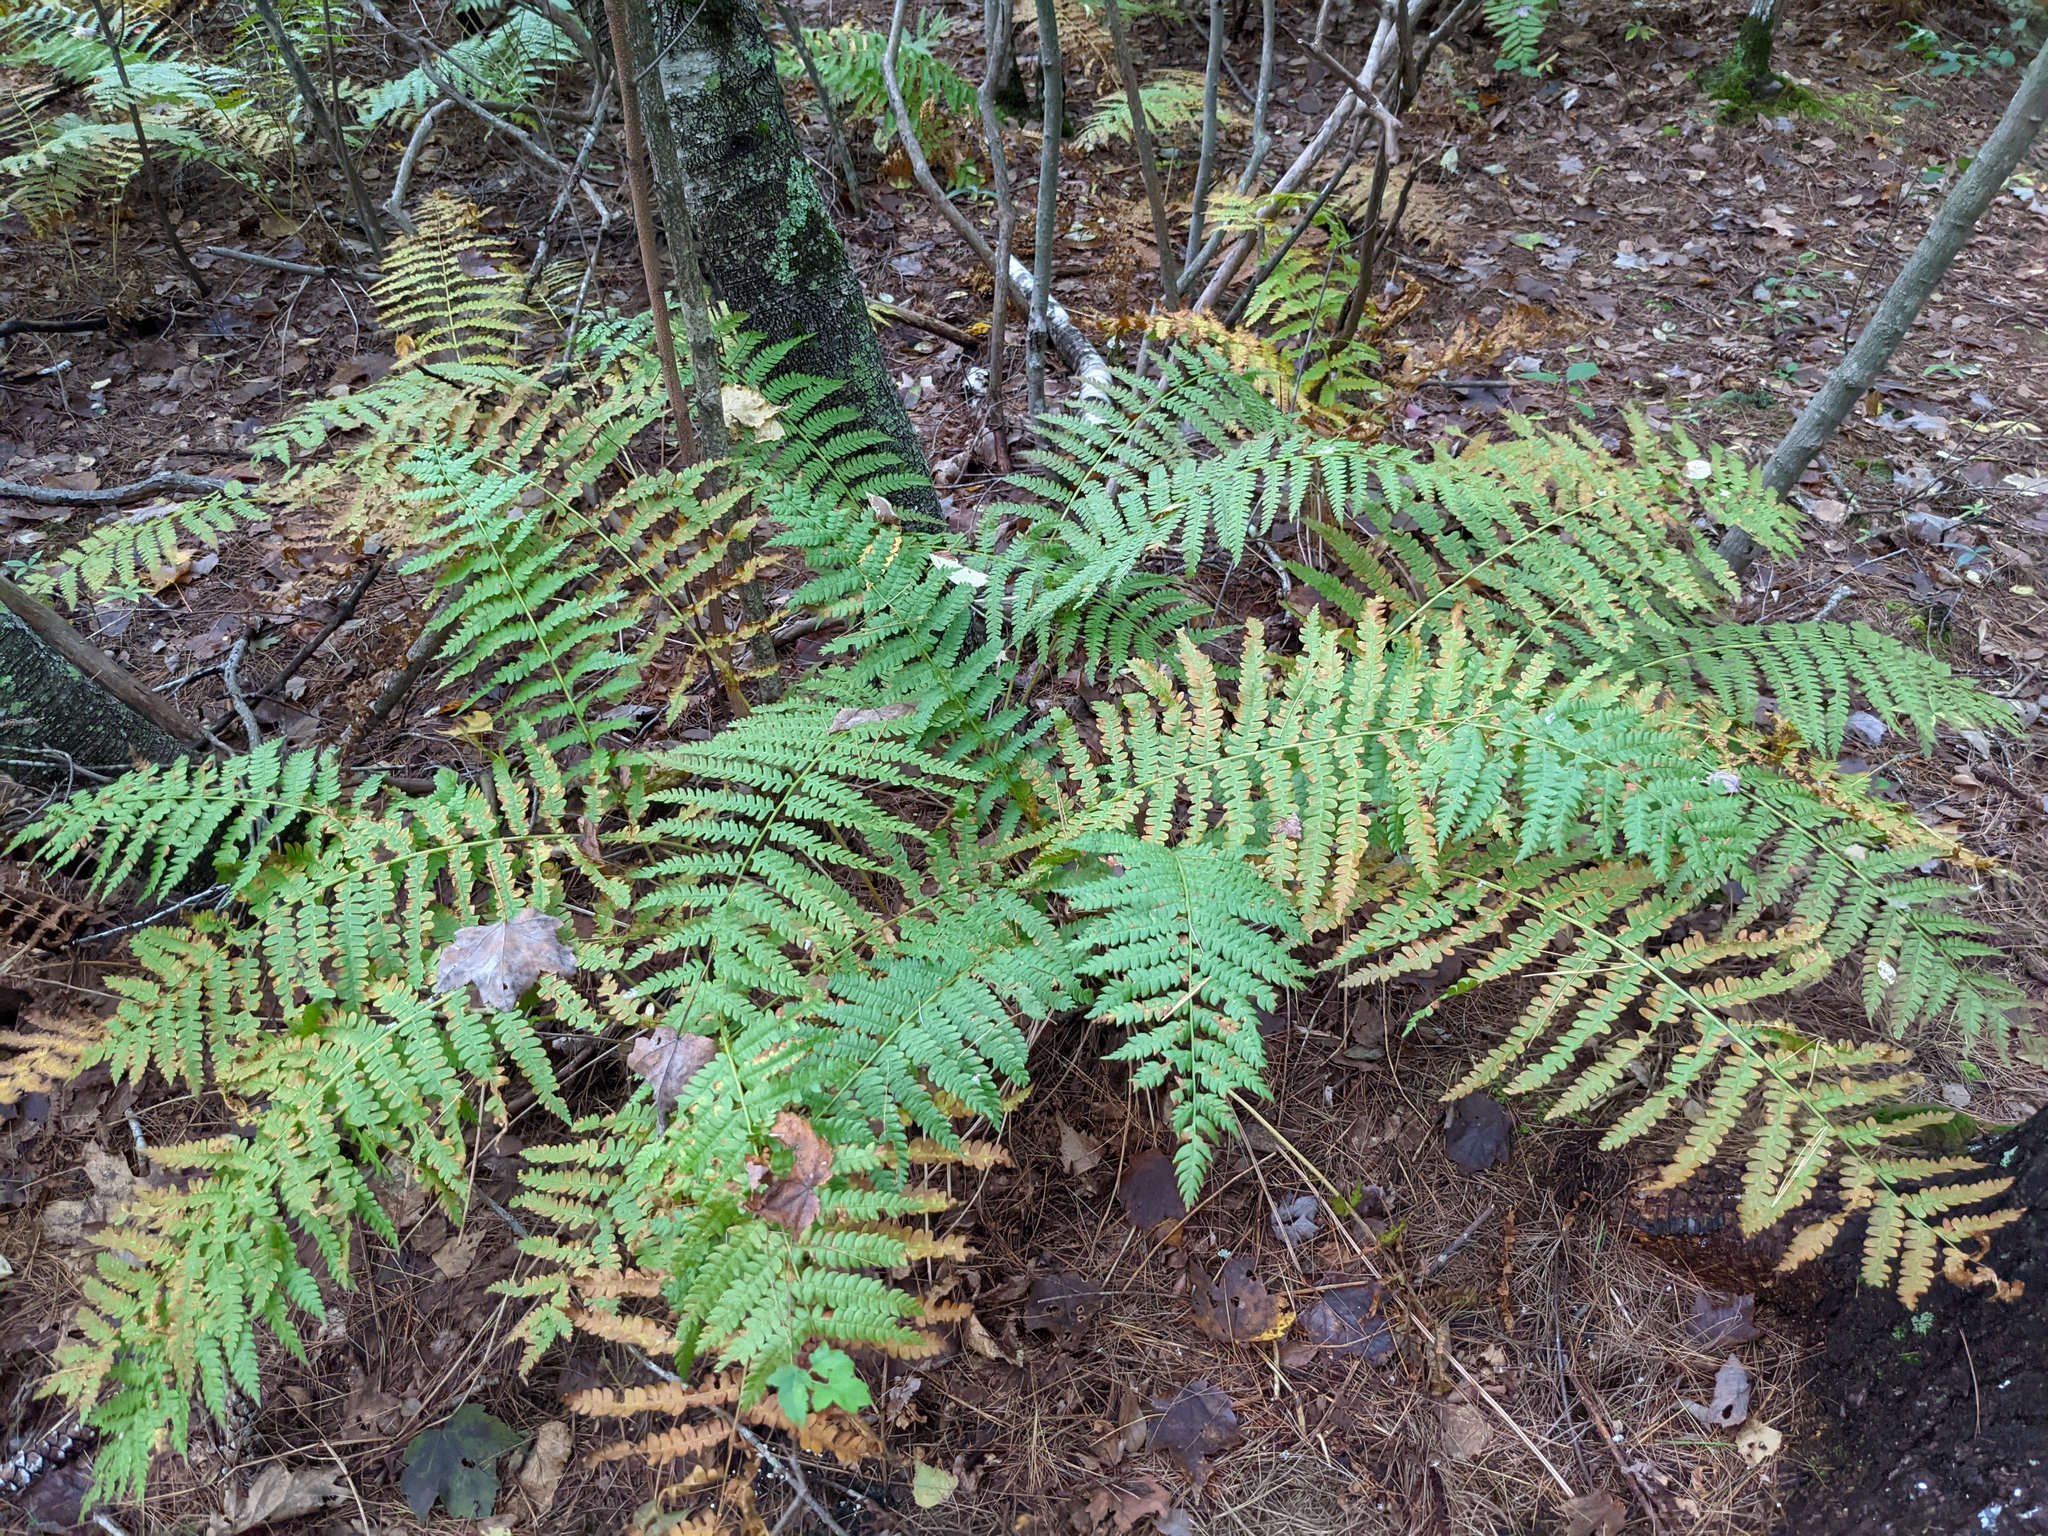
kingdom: Plantae
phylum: Tracheophyta
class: Polypodiopsida
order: Osmundales
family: Osmundaceae
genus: Osmundastrum
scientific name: Osmundastrum cinnamomeum
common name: Cinnamon fern
